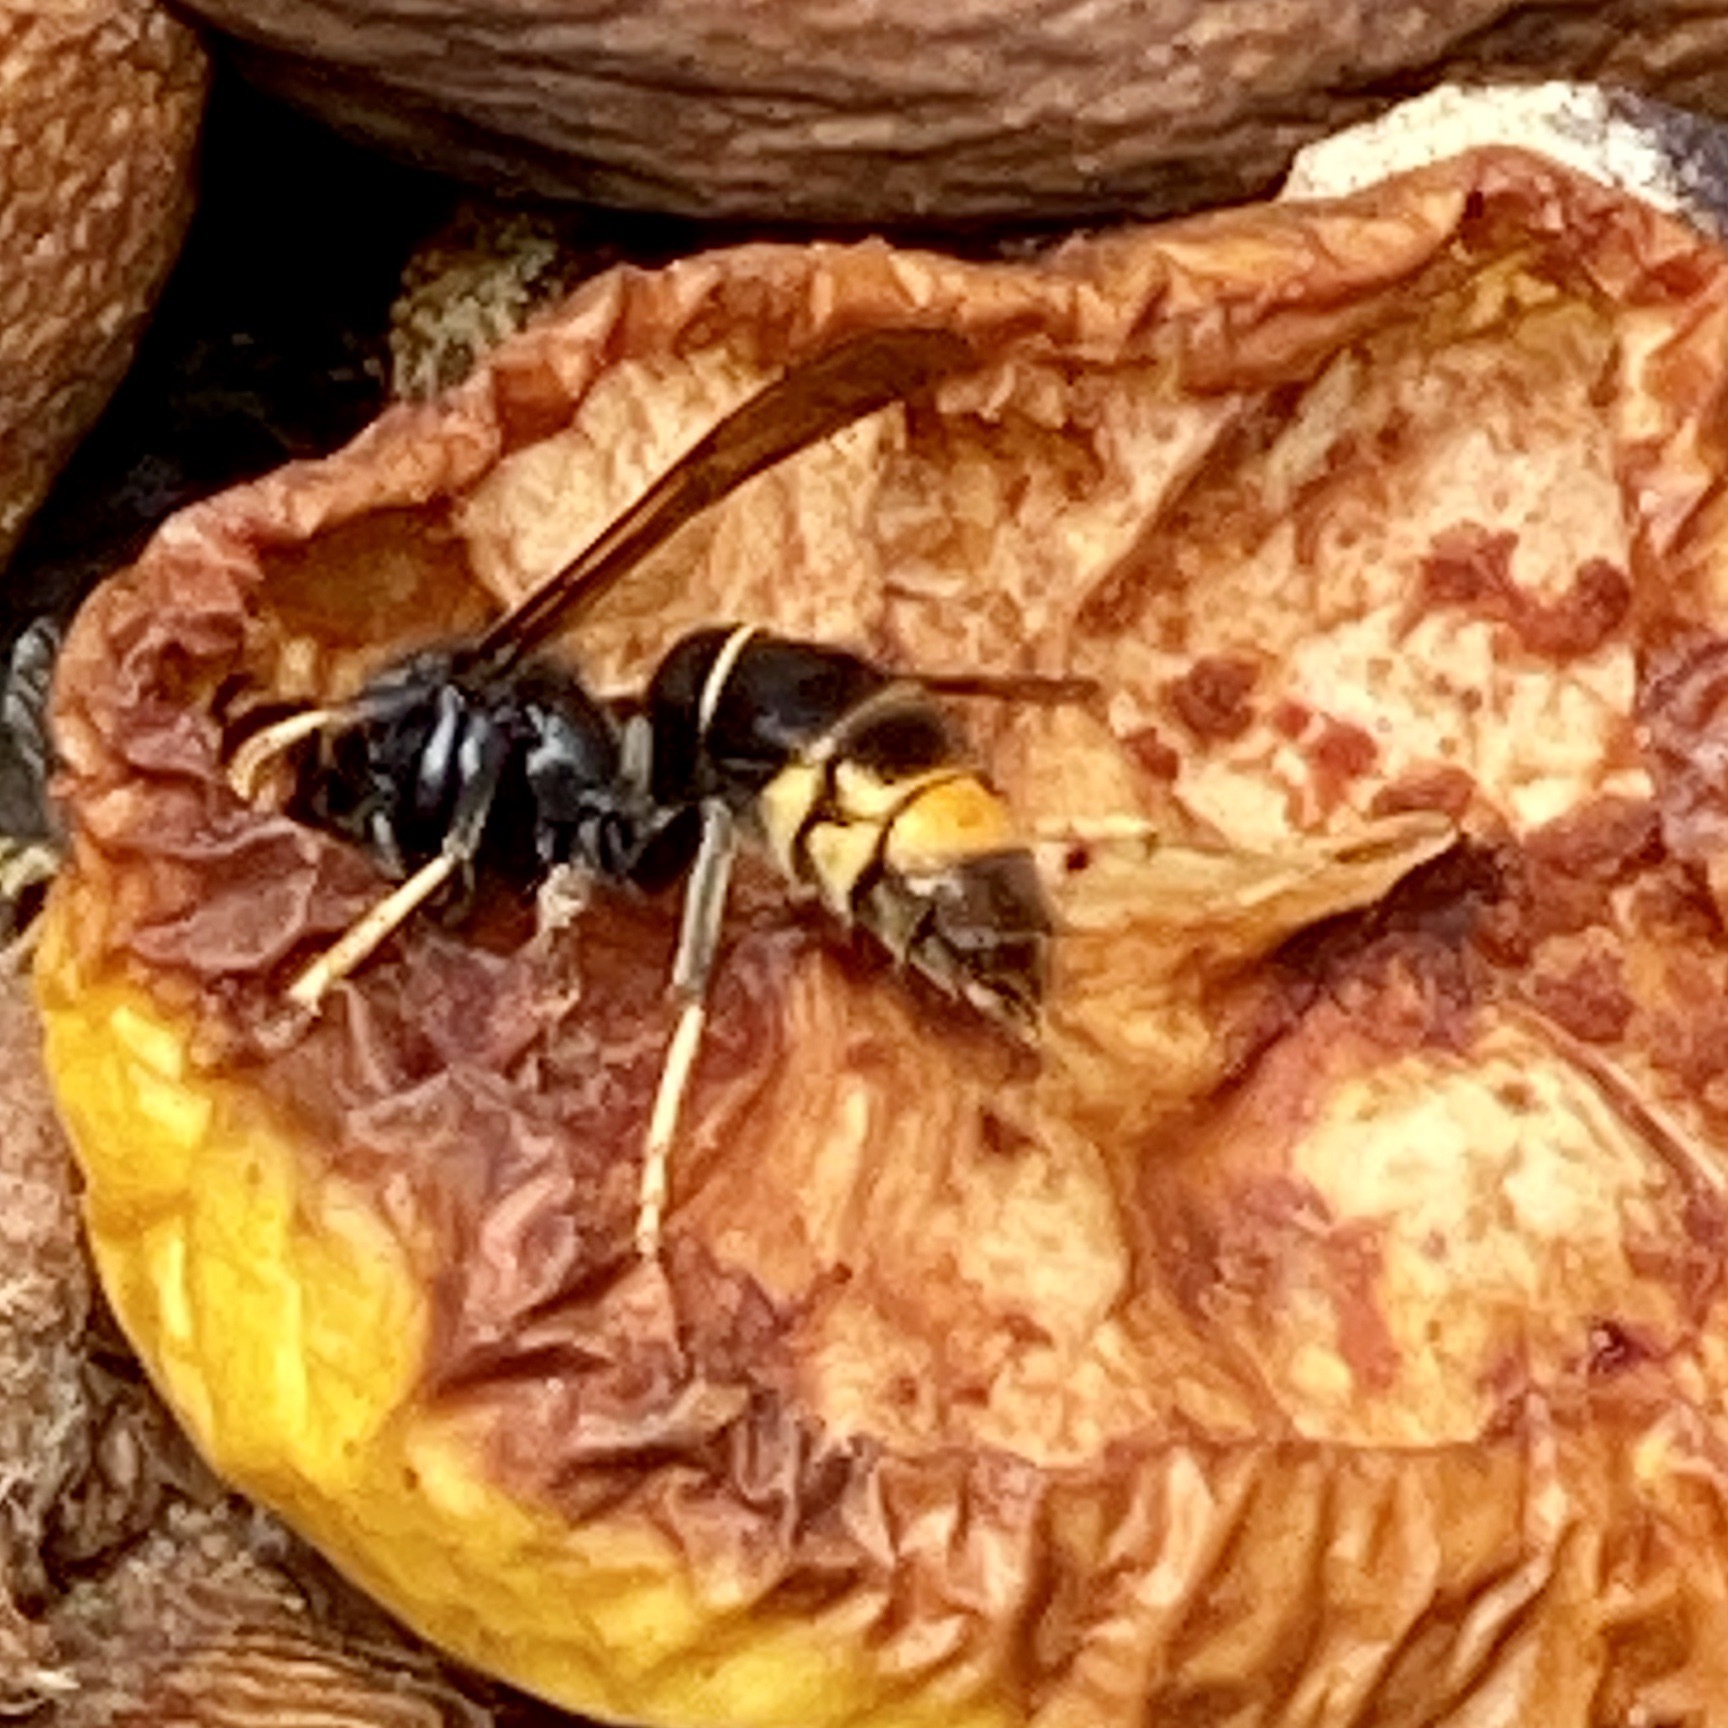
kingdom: Animalia
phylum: Arthropoda
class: Insecta
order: Hymenoptera
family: Vespidae
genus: Vespa
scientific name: Vespa velutina
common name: Asian hornet
